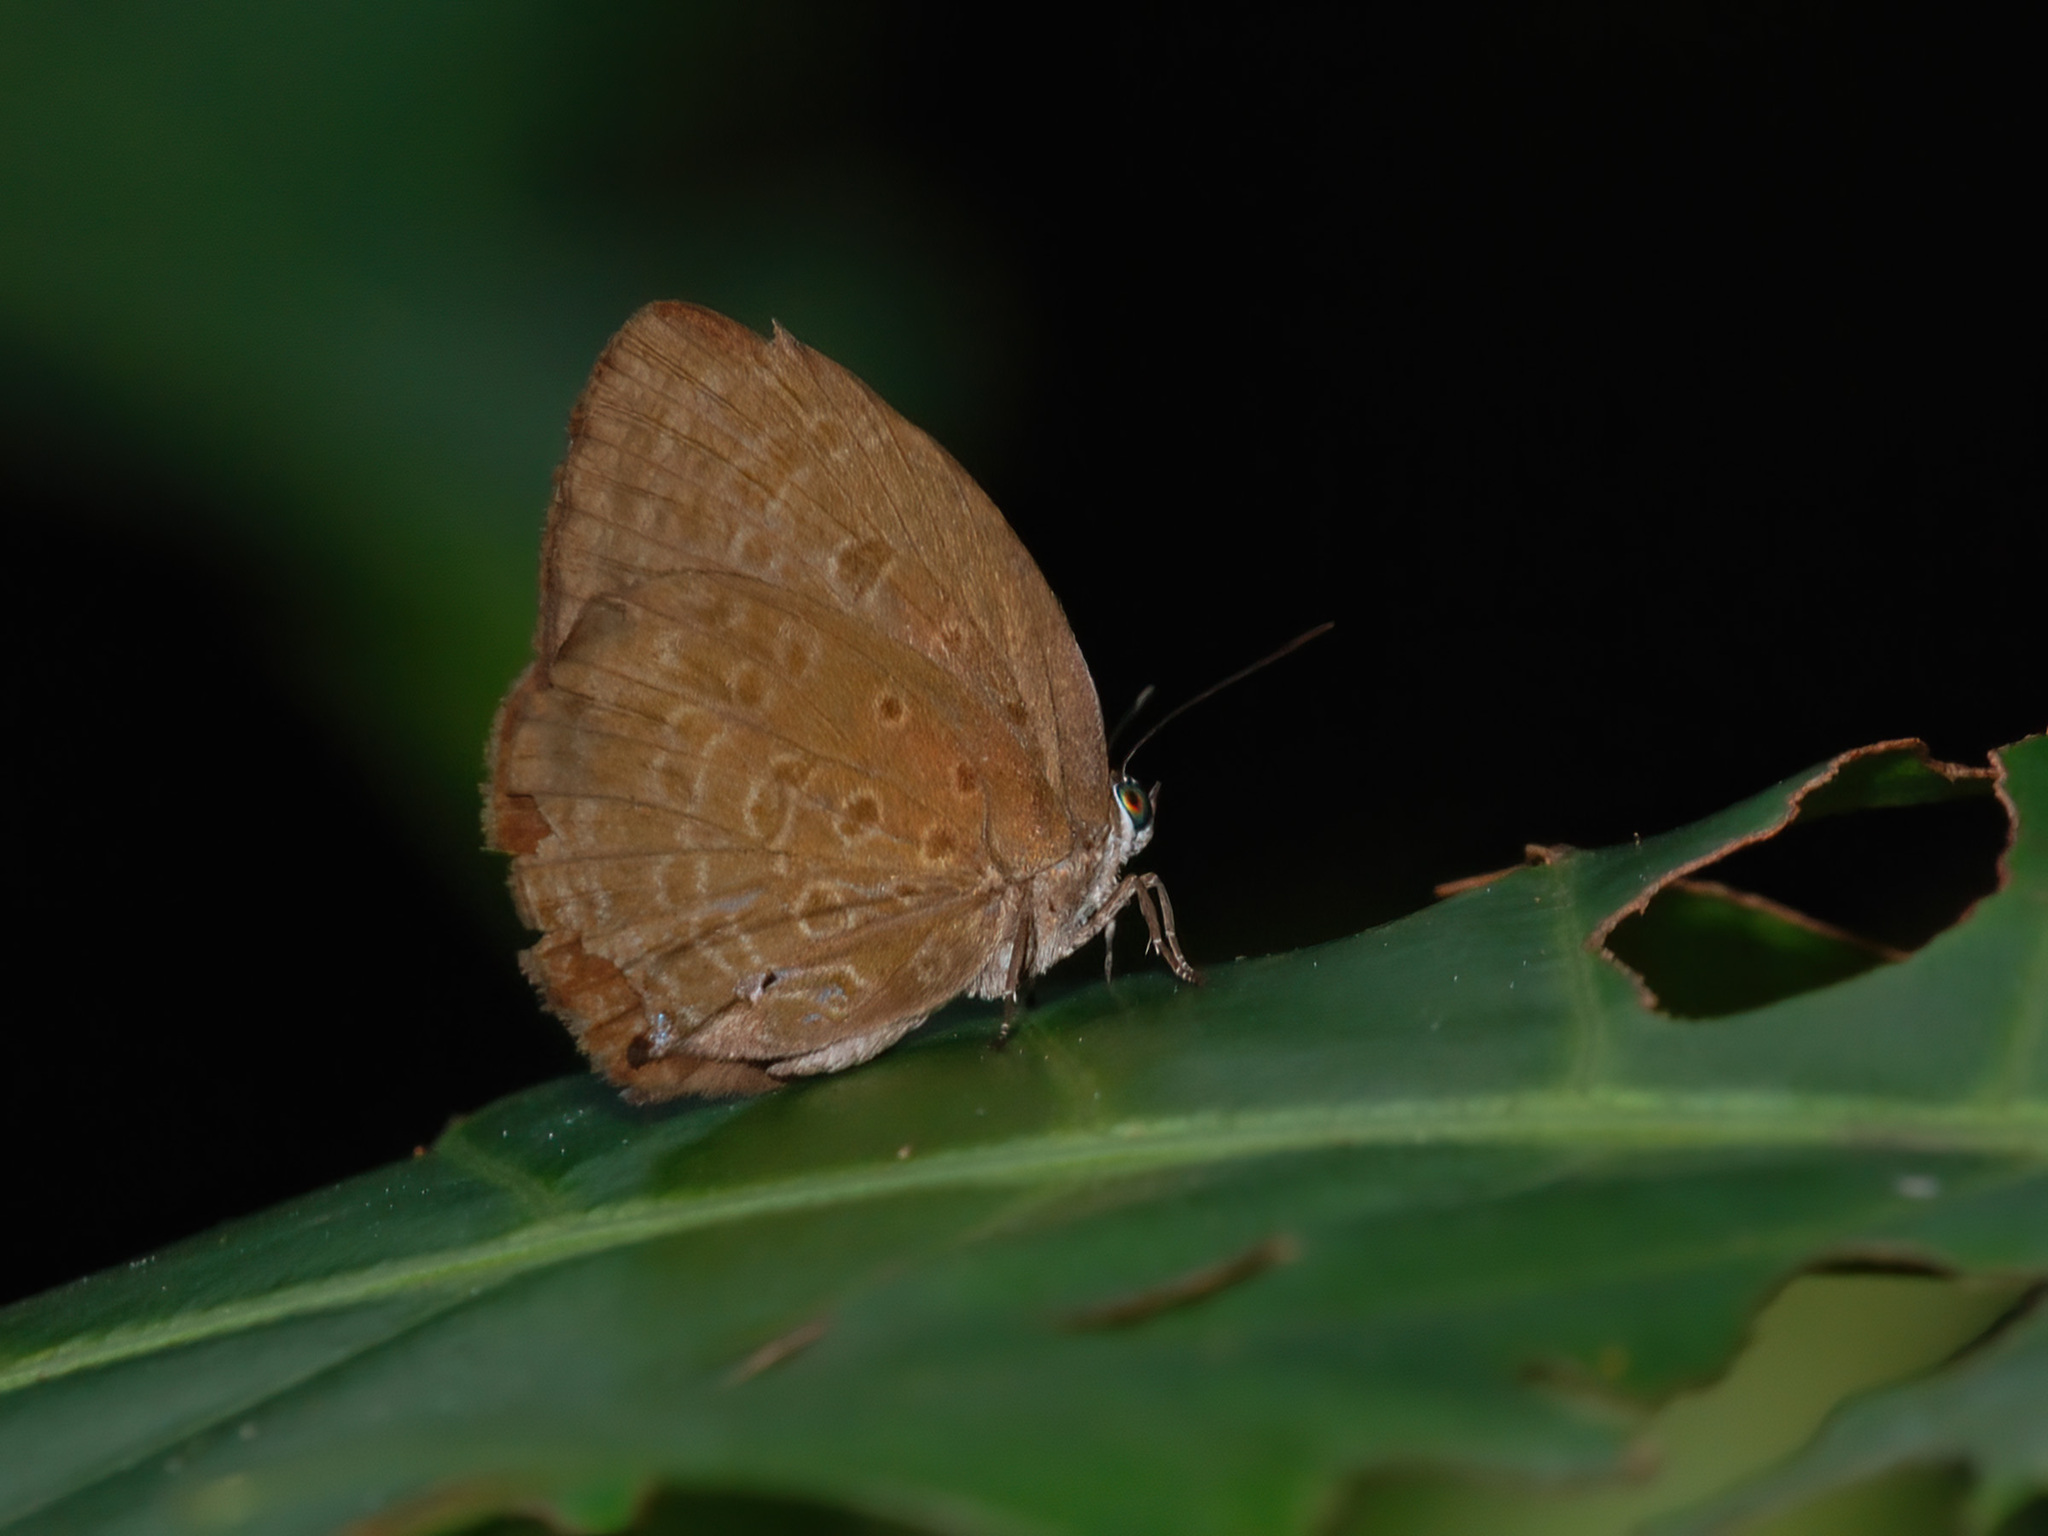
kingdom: Animalia
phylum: Arthropoda
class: Insecta
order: Lepidoptera
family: Lycaenidae
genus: Arhopala
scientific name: Arhopala major
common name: Major yellow oakblue
